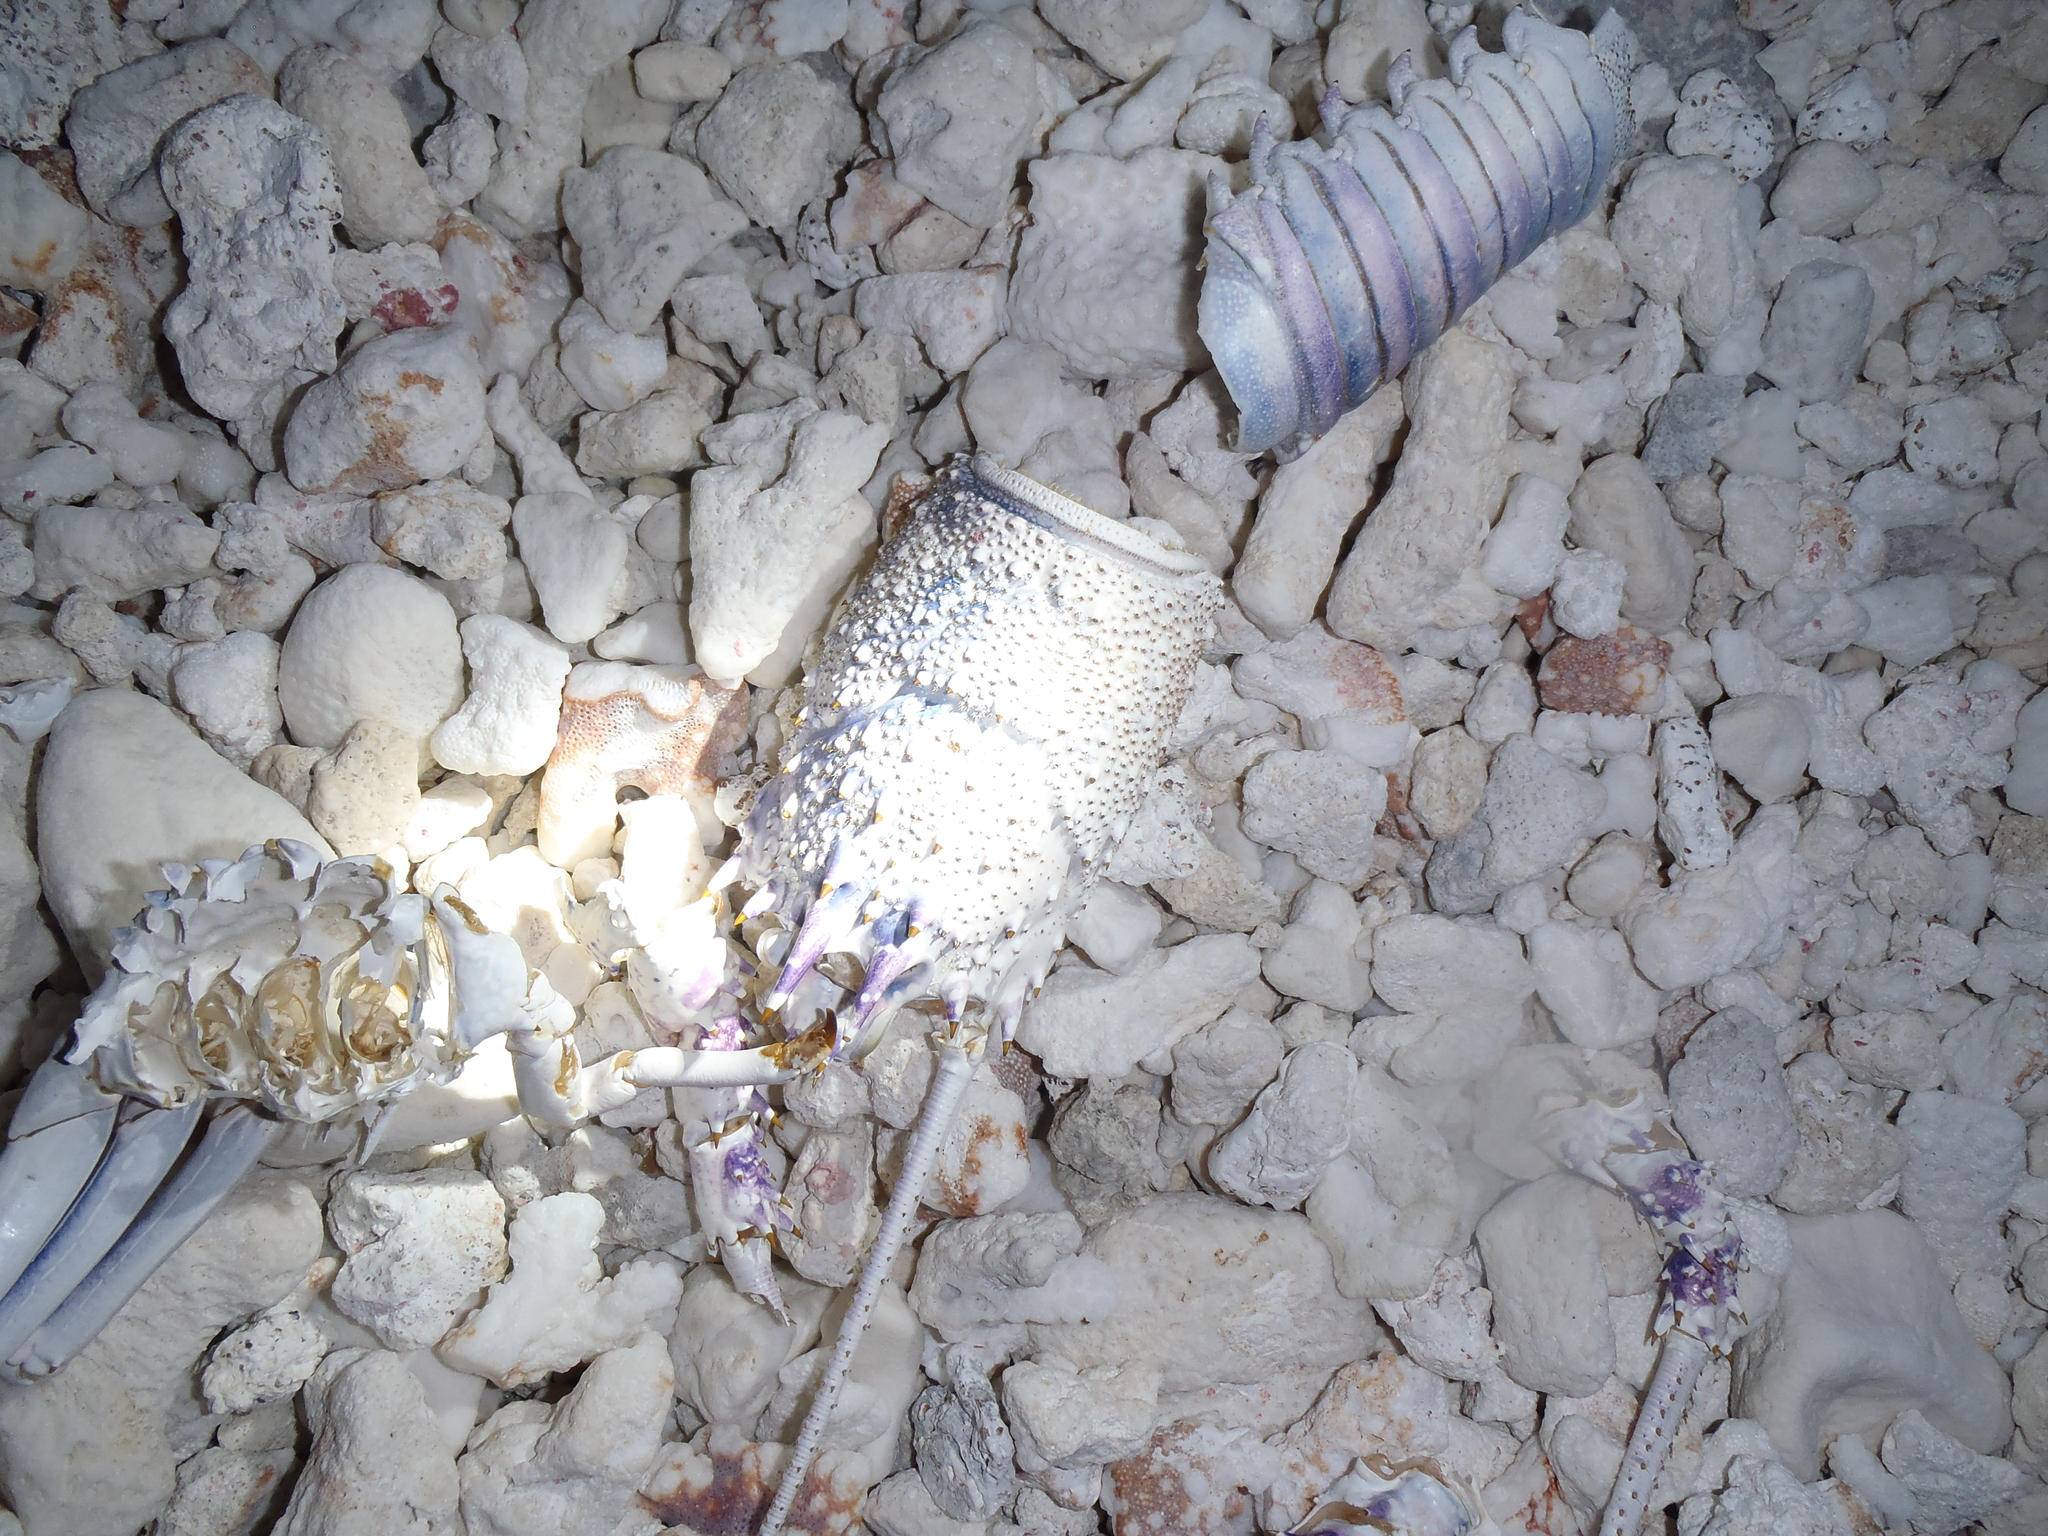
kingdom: Animalia
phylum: Arthropoda
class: Malacostraca
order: Decapoda
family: Palinuridae
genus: Panulirus
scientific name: Panulirus penicillatus
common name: Pronghorn spiny lobster
